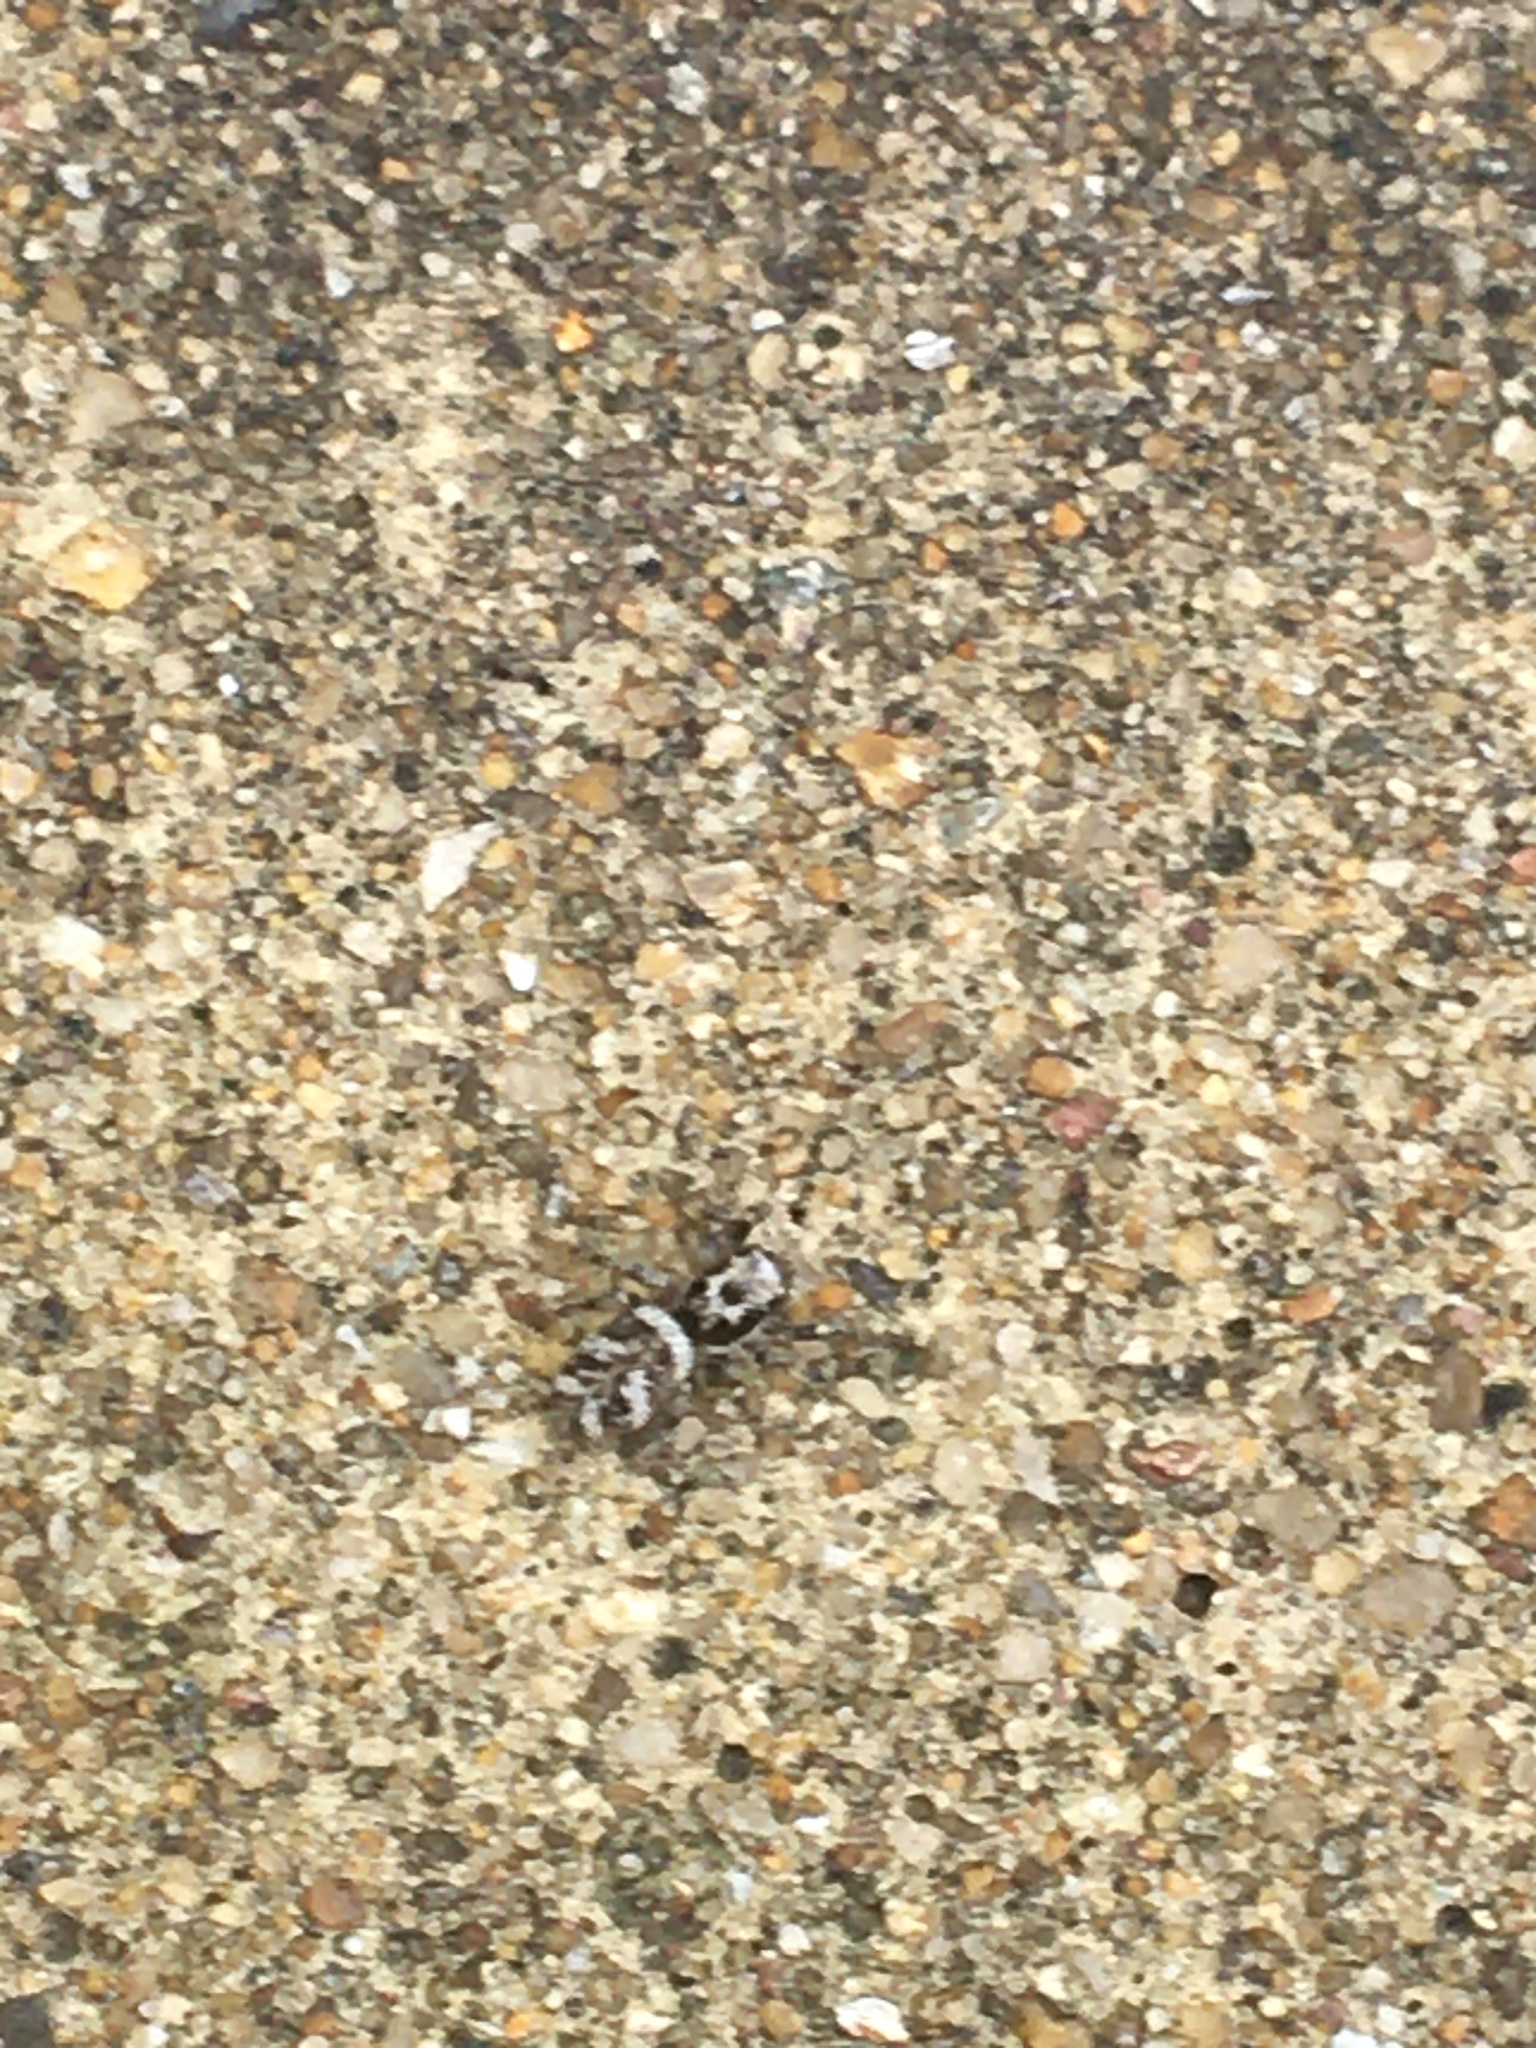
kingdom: Animalia
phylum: Arthropoda
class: Arachnida
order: Araneae
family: Salticidae
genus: Salticus
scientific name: Salticus scenicus
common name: Zebra jumper
